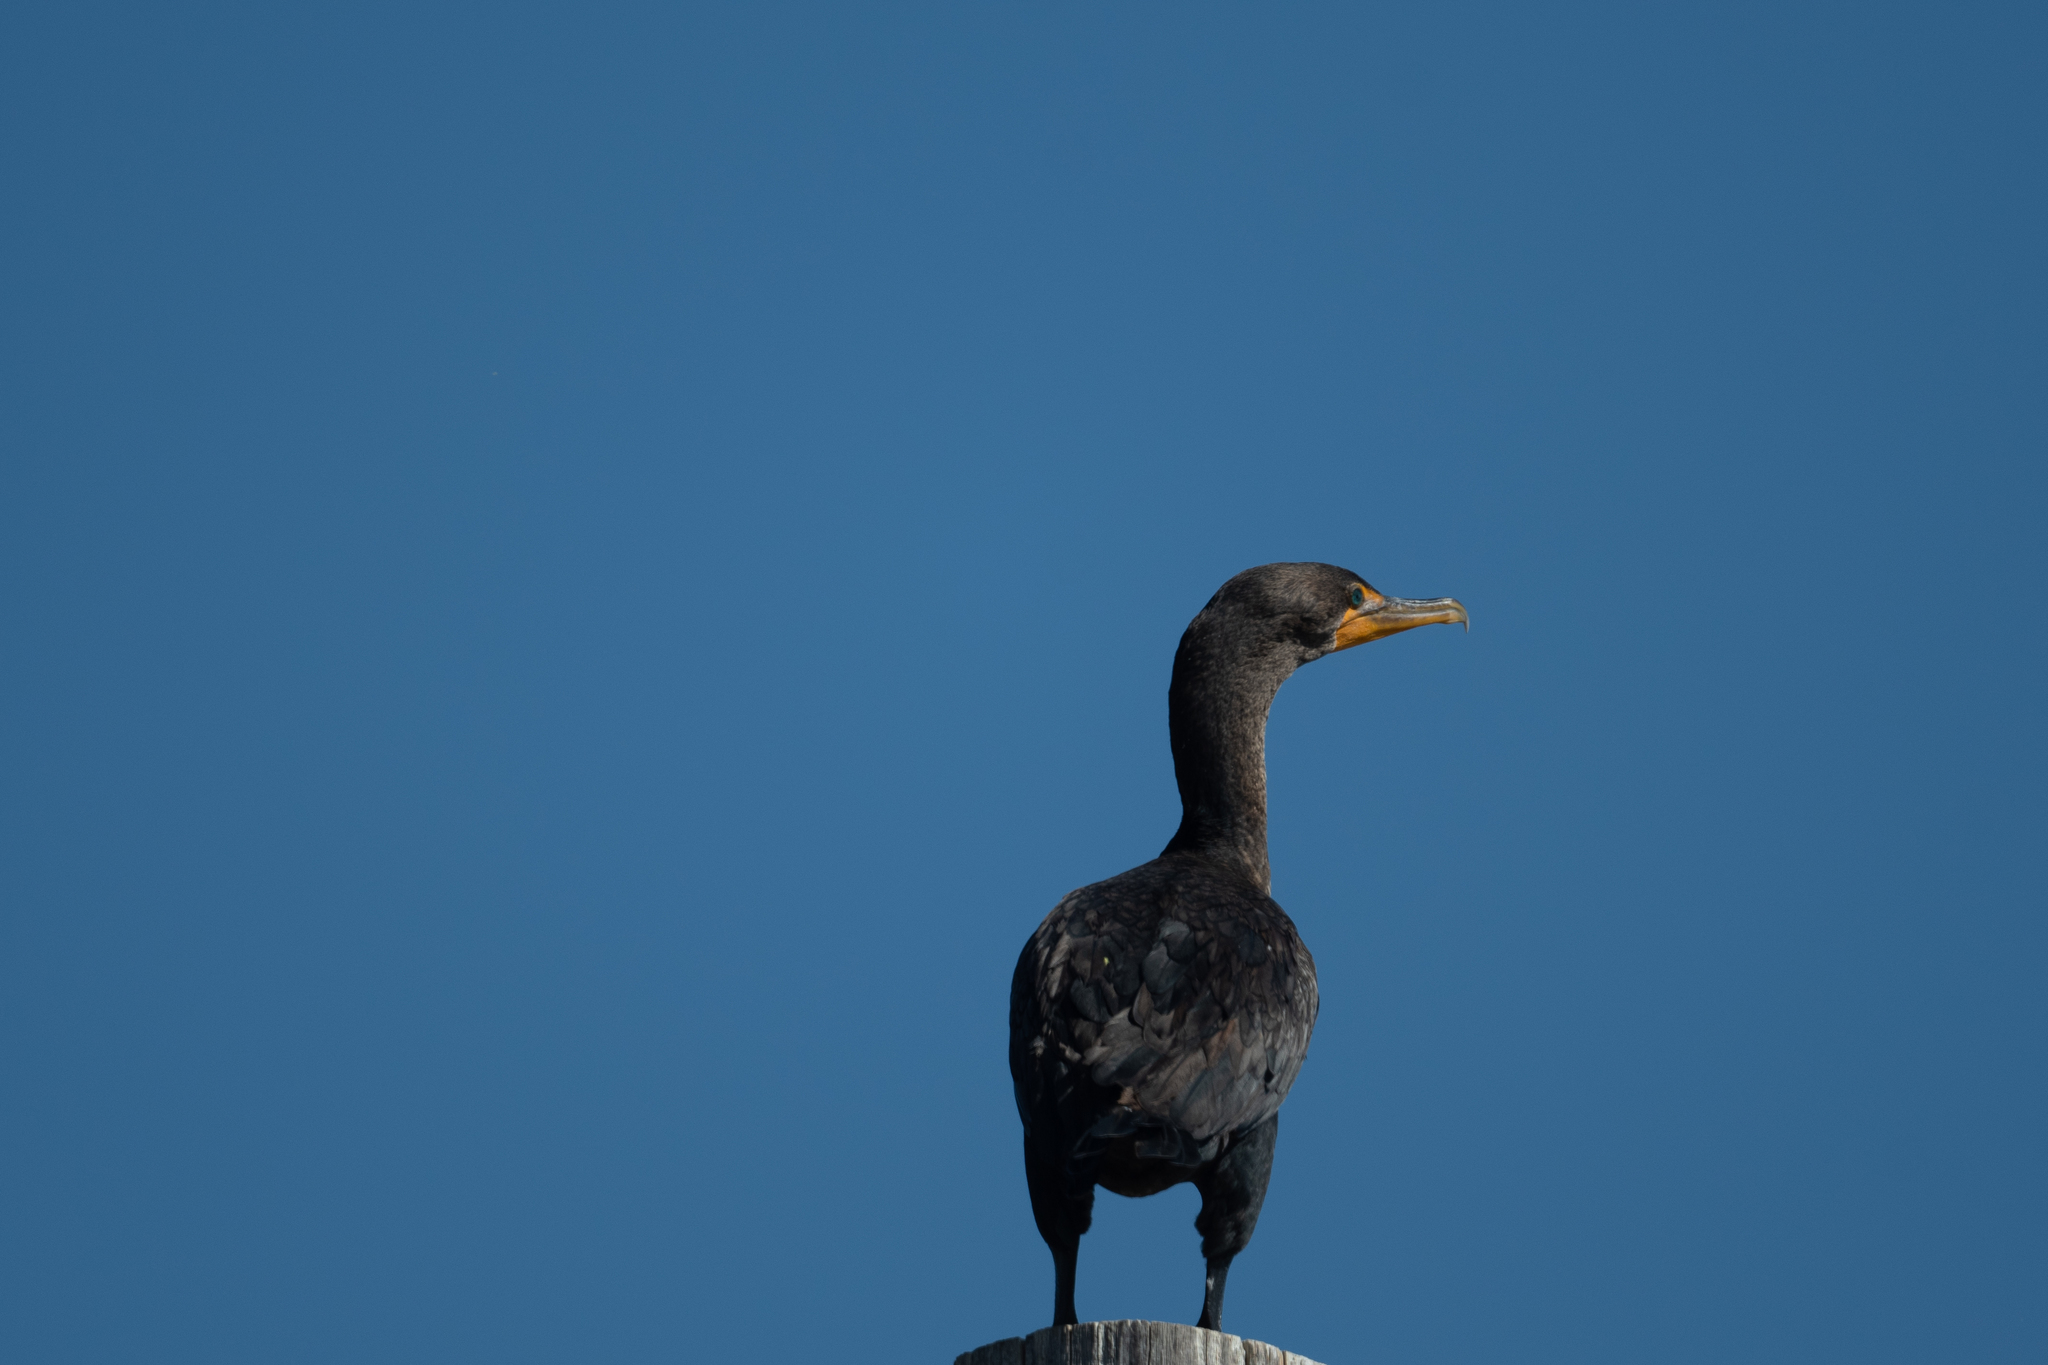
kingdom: Animalia
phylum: Chordata
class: Aves
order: Suliformes
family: Phalacrocoracidae
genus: Phalacrocorax
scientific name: Phalacrocorax auritus
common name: Double-crested cormorant
